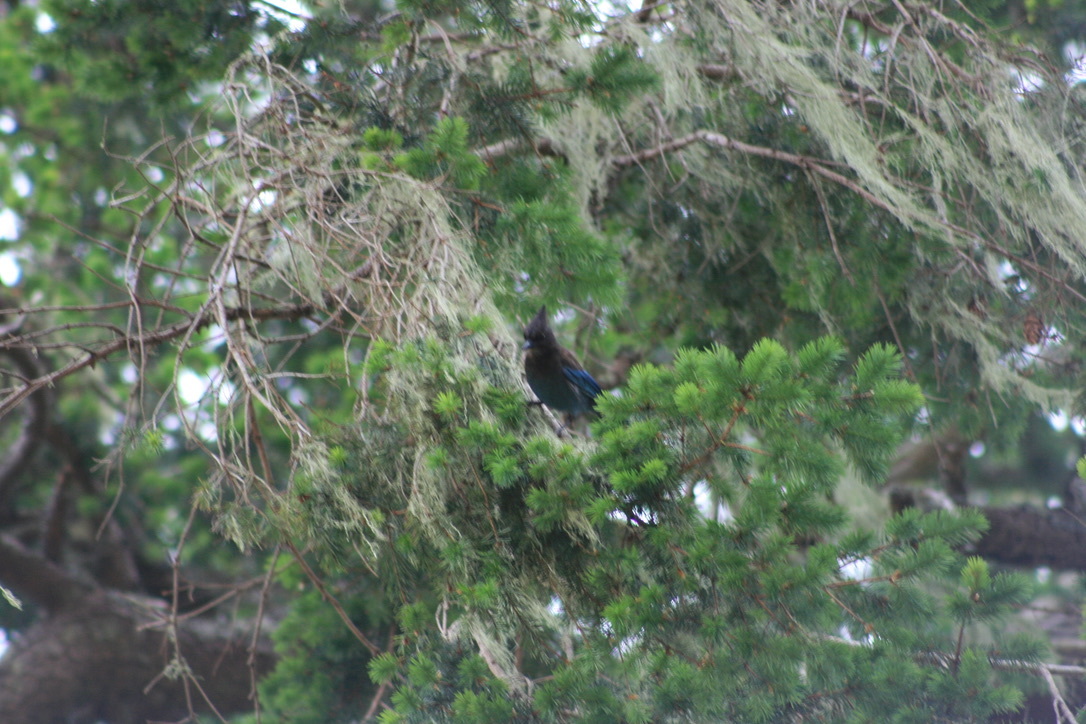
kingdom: Animalia
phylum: Chordata
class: Aves
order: Passeriformes
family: Corvidae
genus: Cyanocitta
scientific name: Cyanocitta stelleri
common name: Steller's jay
